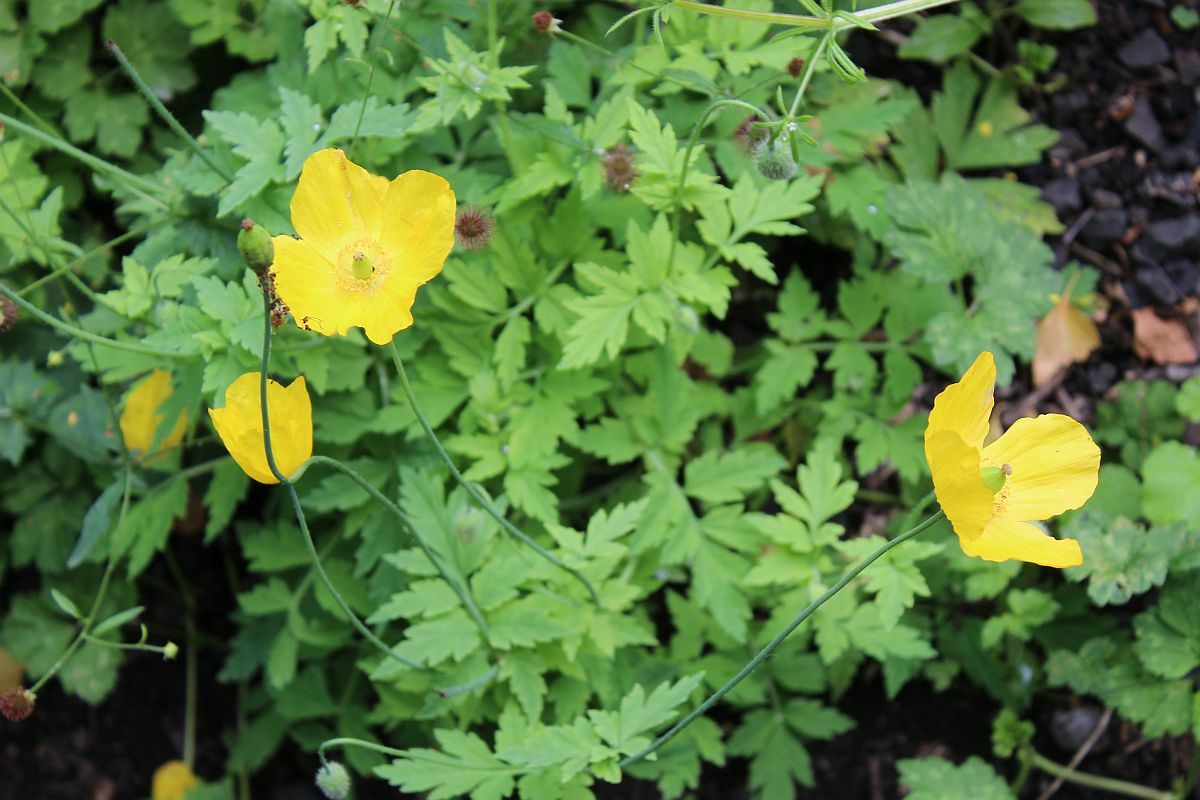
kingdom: Plantae
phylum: Tracheophyta
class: Magnoliopsida
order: Ranunculales
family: Papaveraceae
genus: Papaver
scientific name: Papaver cambricum
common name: Poppy
